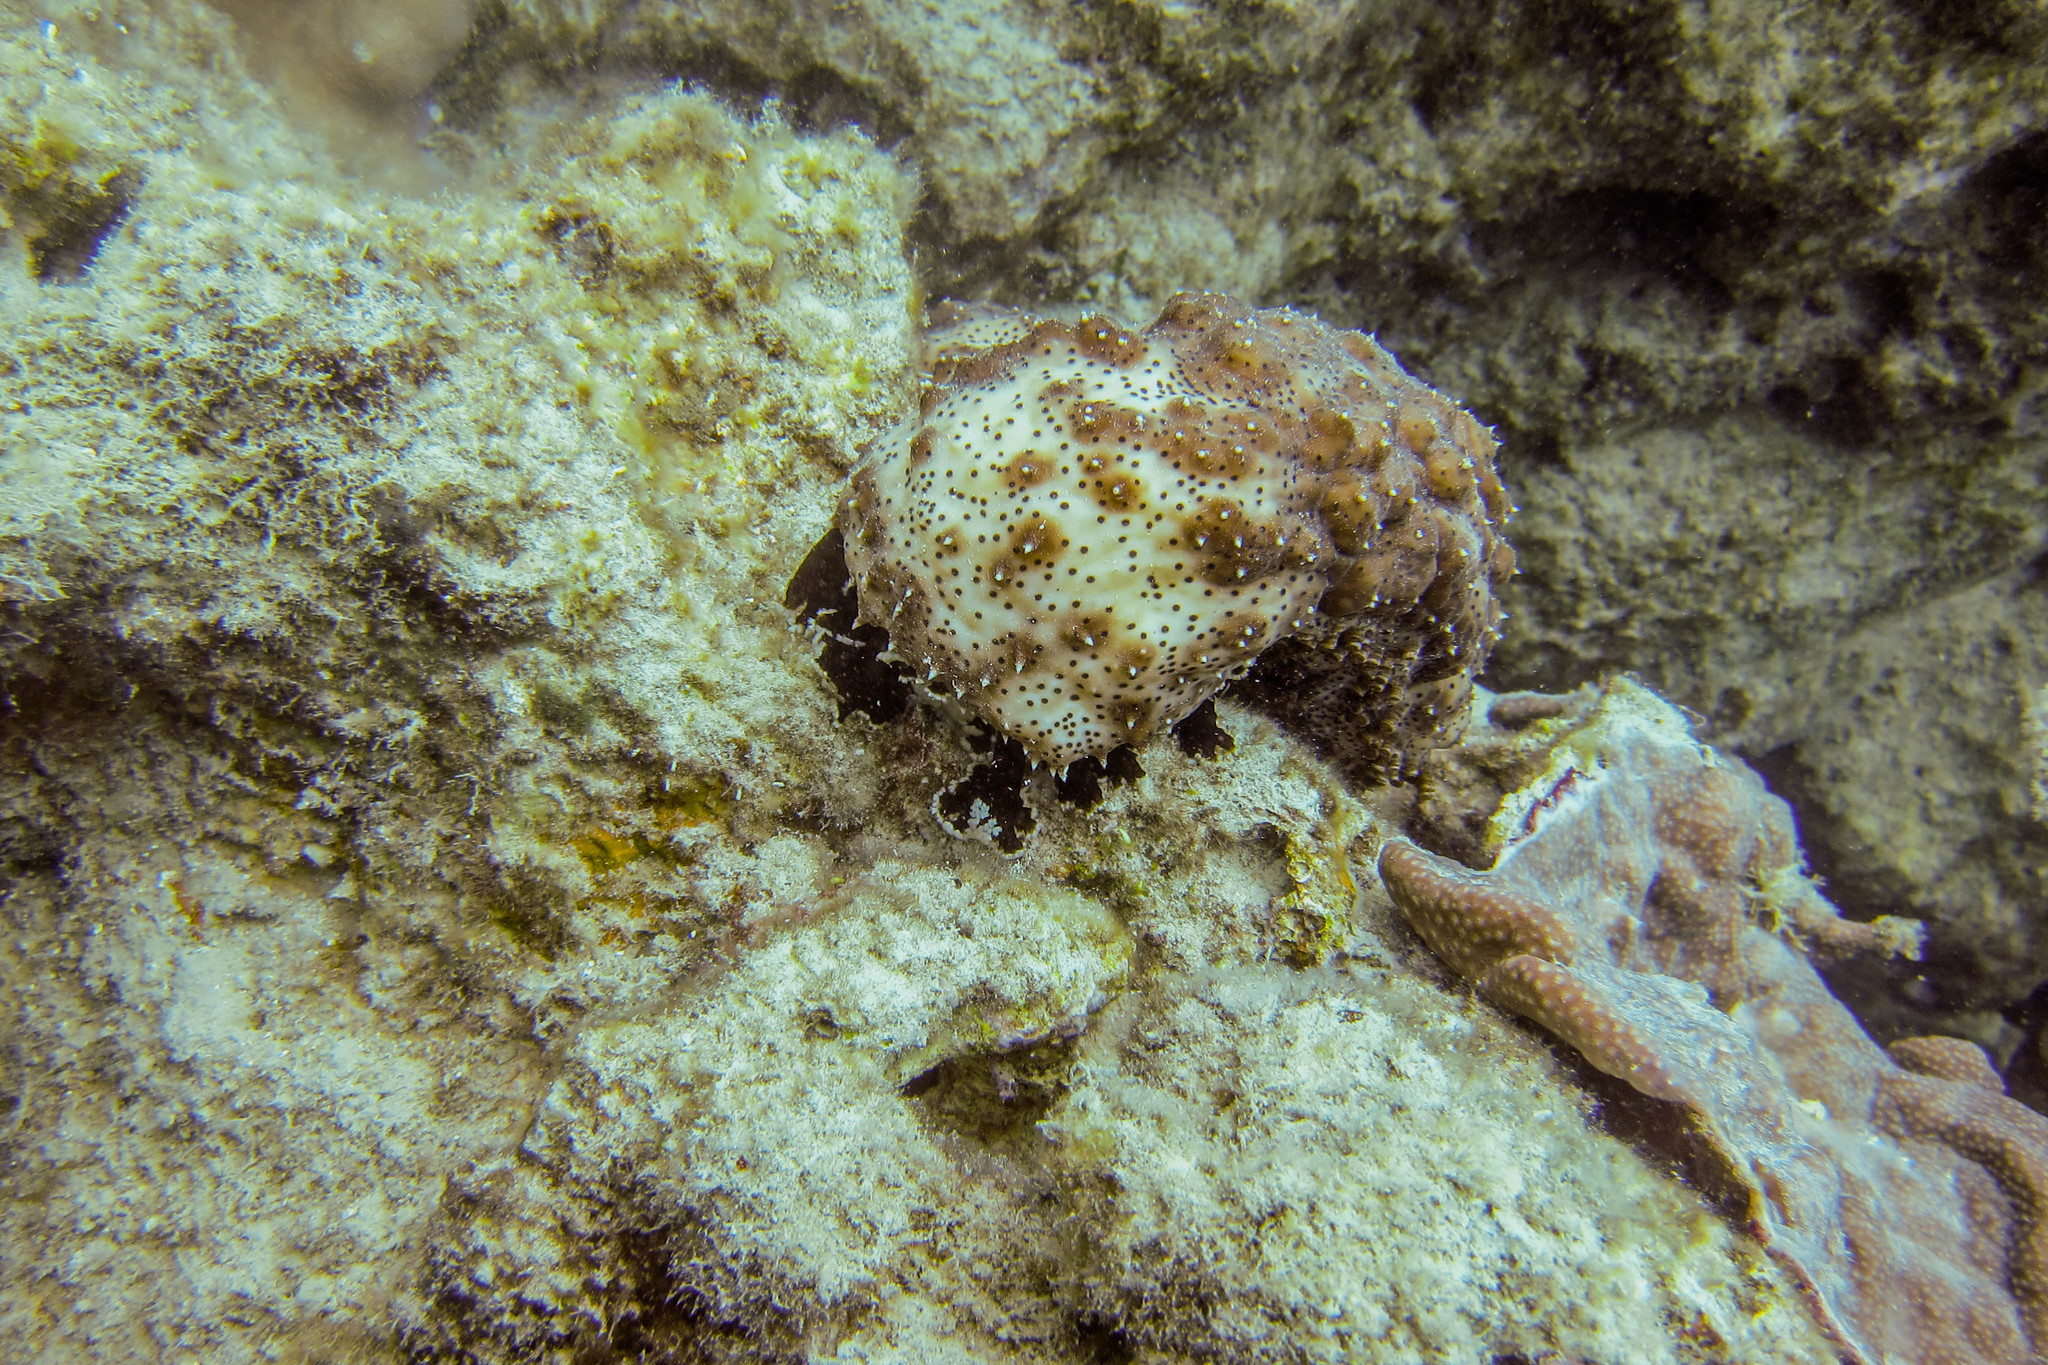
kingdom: Animalia
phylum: Echinodermata
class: Holothuroidea
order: Holothuriida
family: Holothuriidae
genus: Pearsonothuria
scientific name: Pearsonothuria graeffei
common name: Blackspotted sea cucumber
